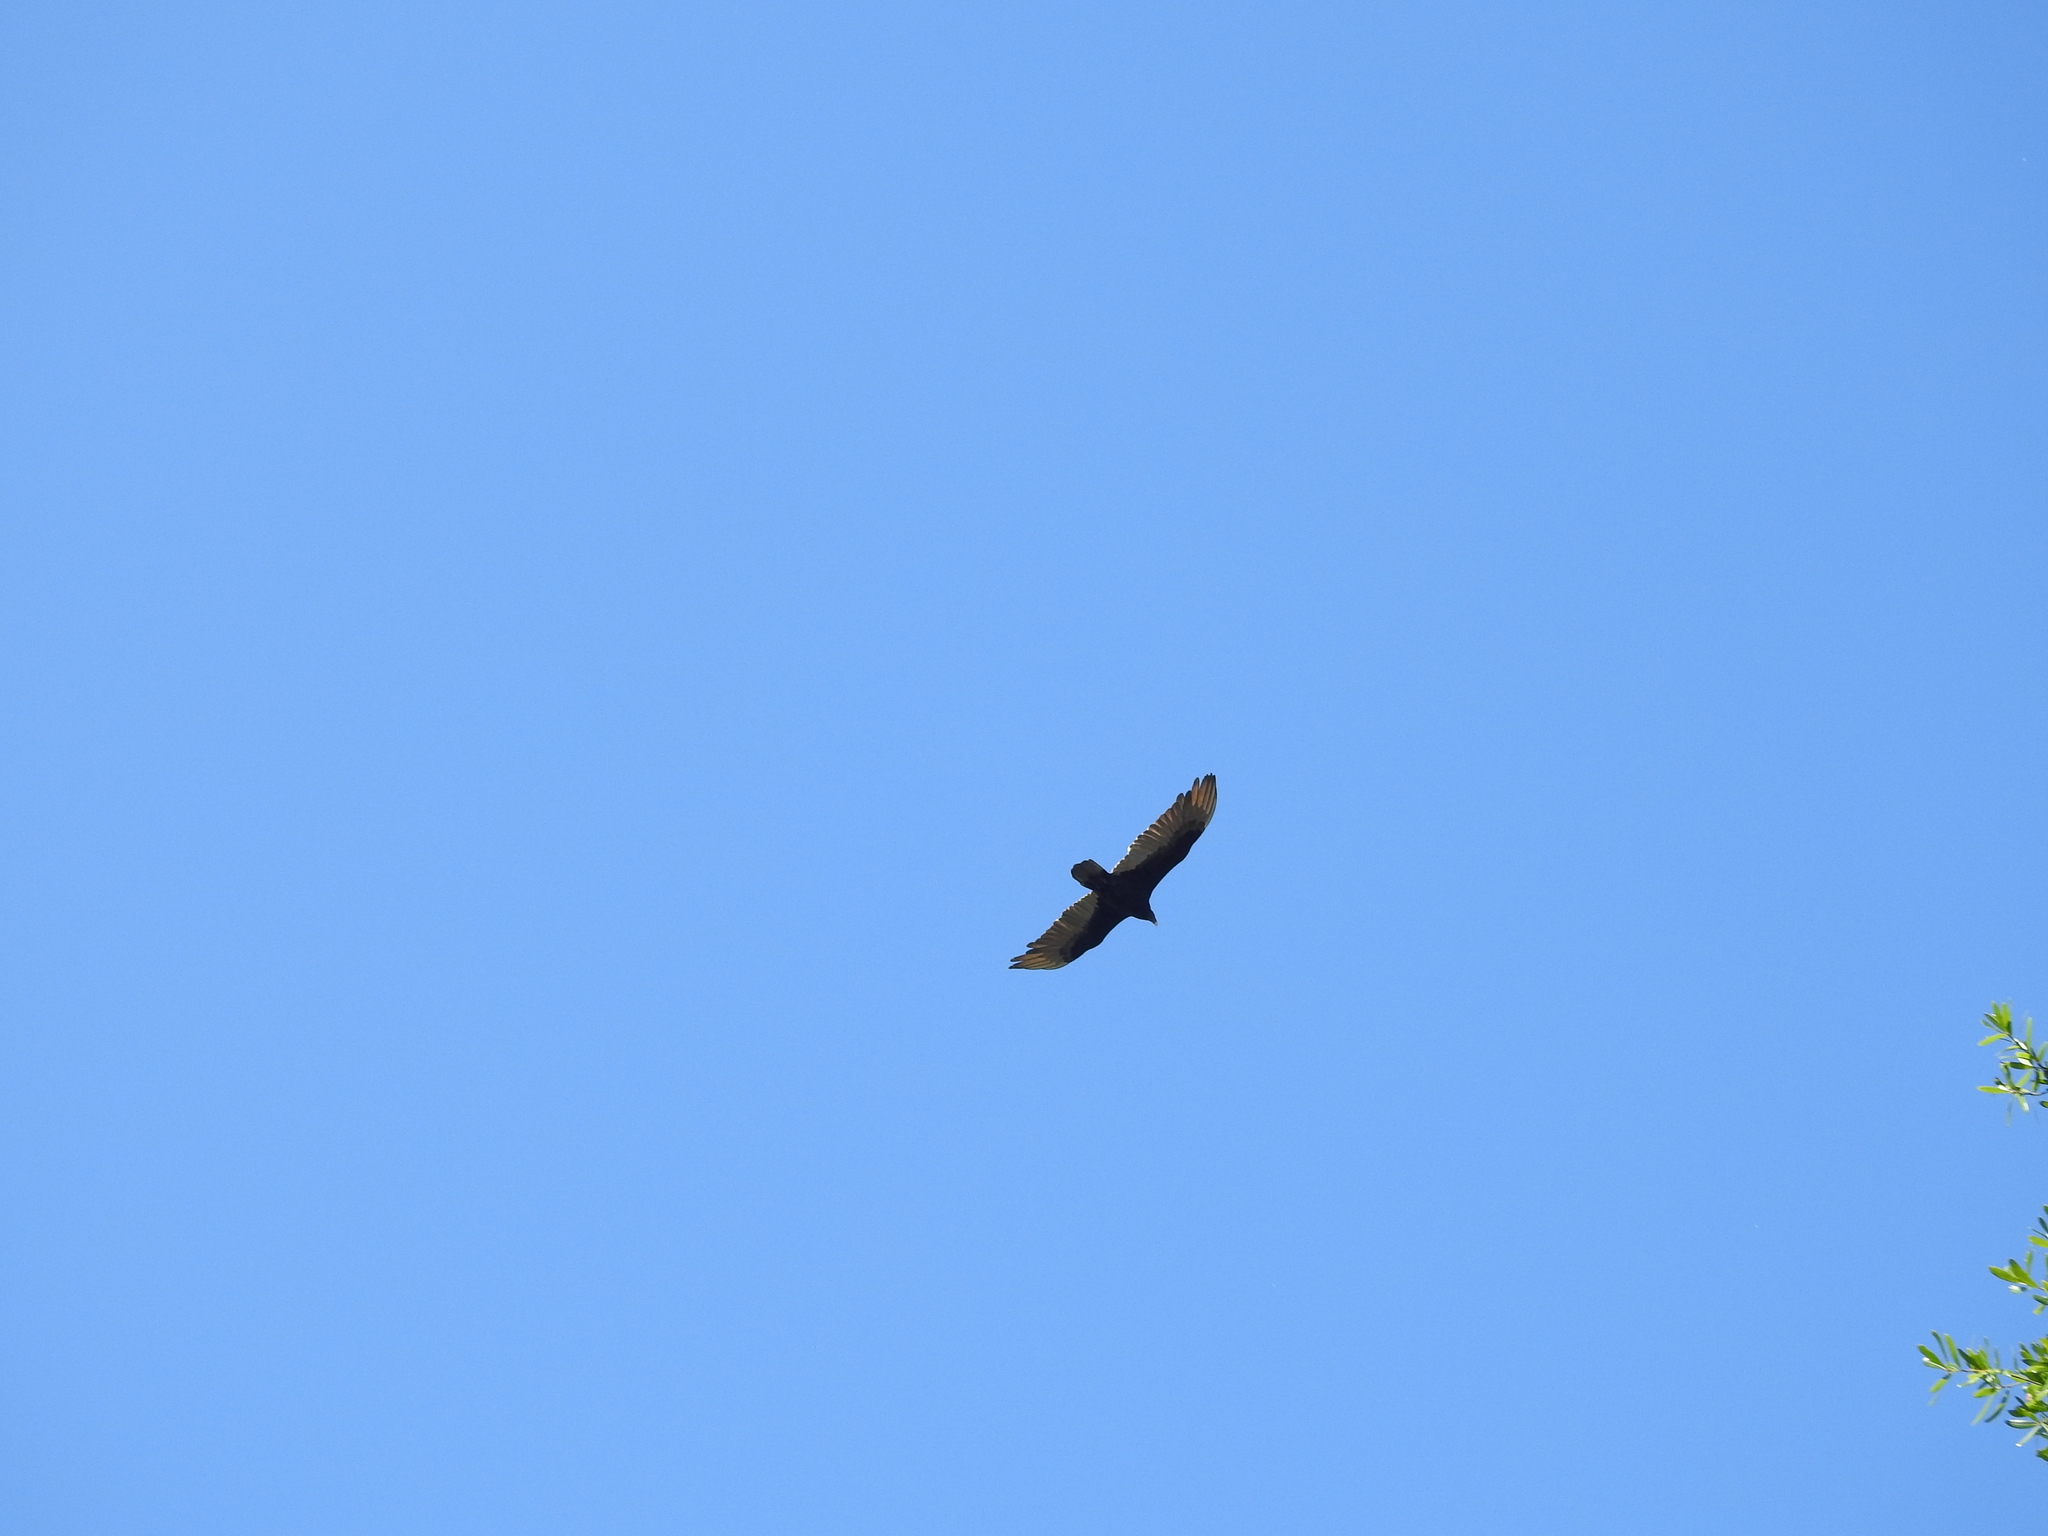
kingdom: Animalia
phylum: Chordata
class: Aves
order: Accipitriformes
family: Cathartidae
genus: Cathartes
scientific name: Cathartes aura
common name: Turkey vulture
